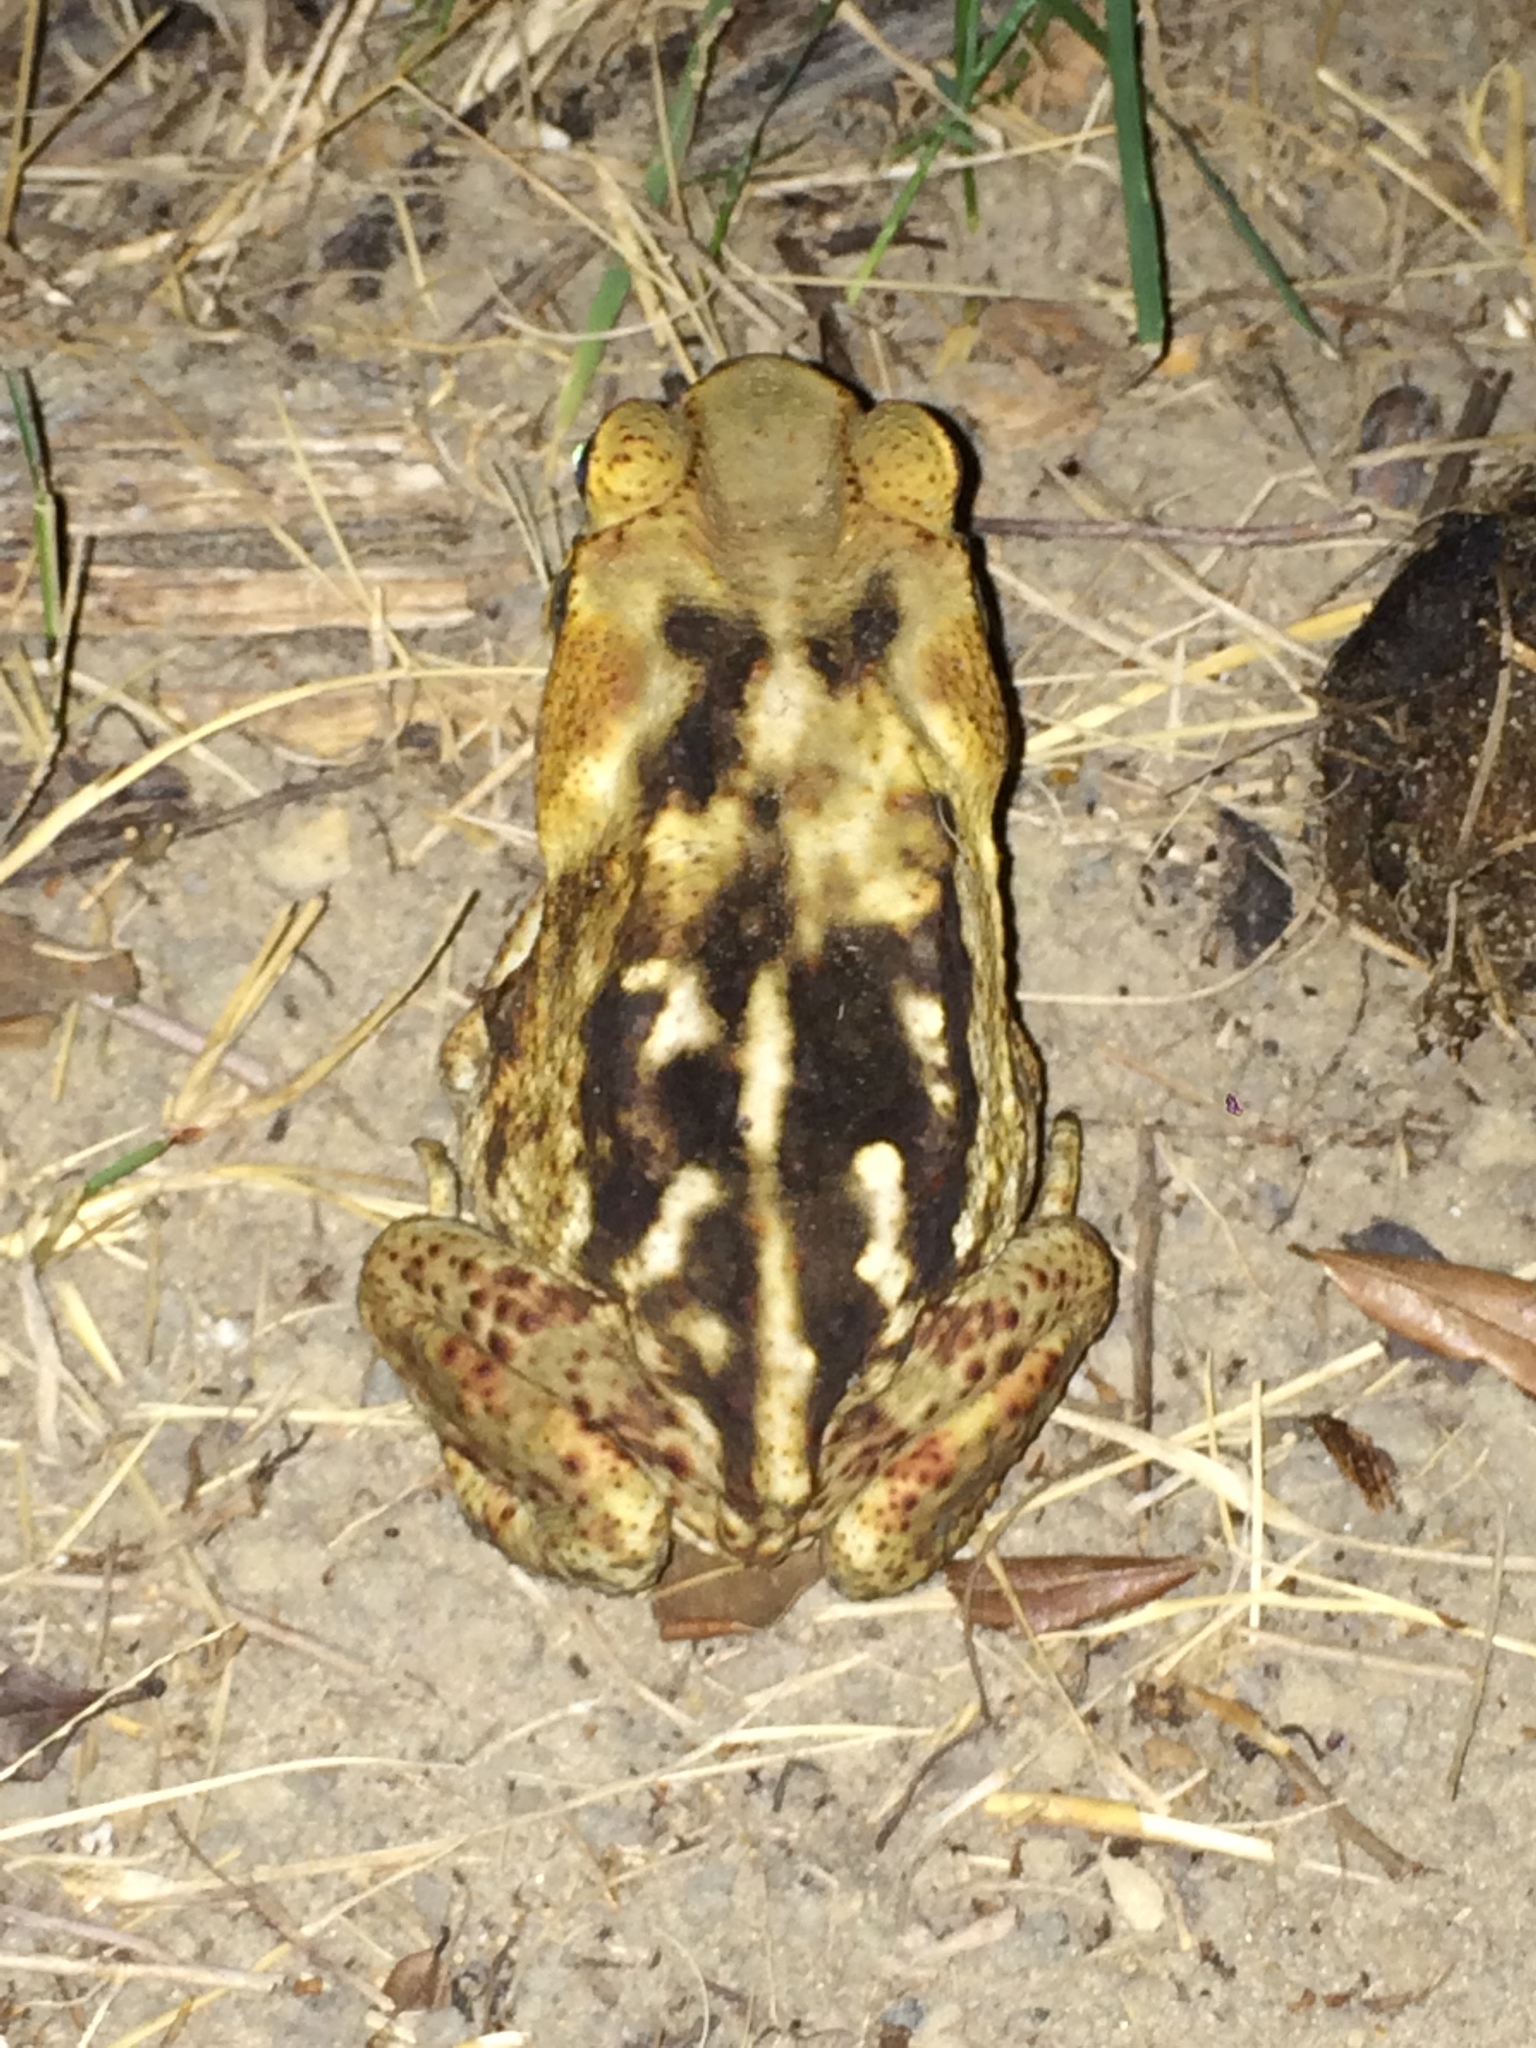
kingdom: Animalia
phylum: Chordata
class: Amphibia
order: Anura
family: Bufonidae
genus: Rhinella
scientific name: Rhinella diptycha
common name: Cope's toad
